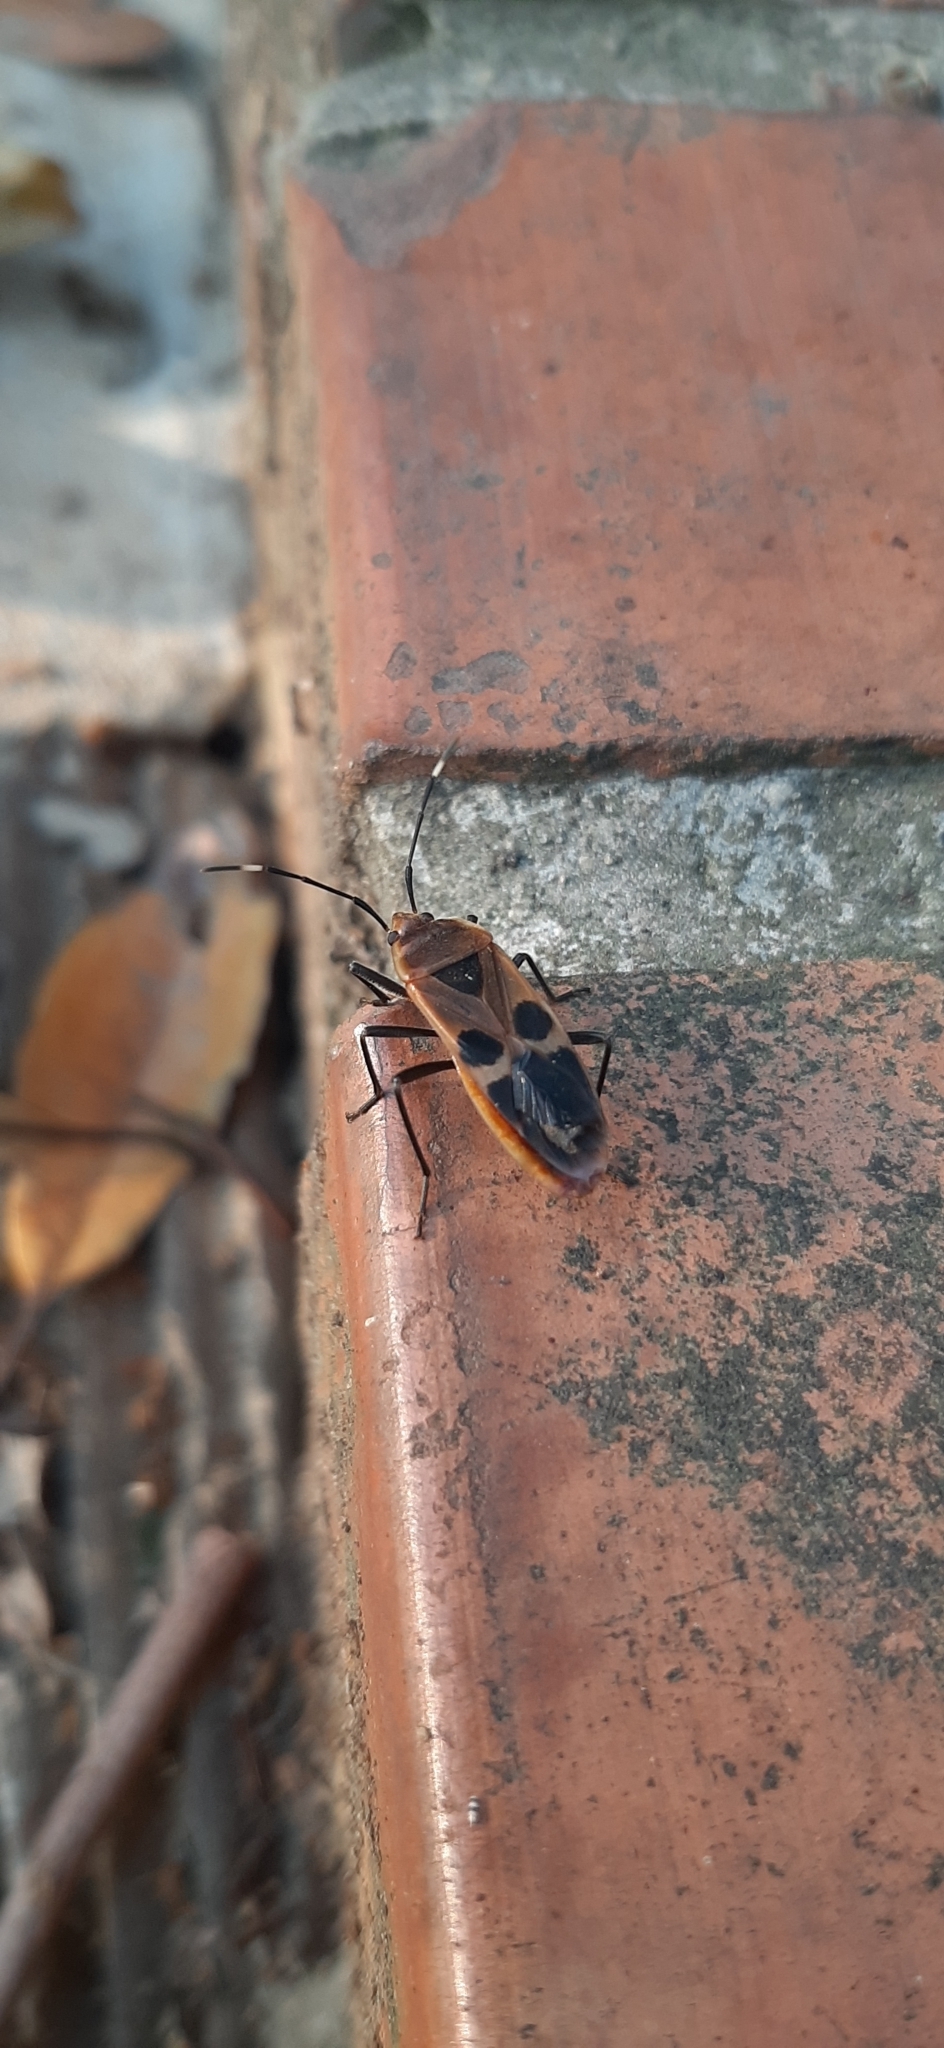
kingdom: Animalia
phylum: Arthropoda
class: Insecta
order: Hemiptera
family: Largidae
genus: Physopelta
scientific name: Physopelta gutta
